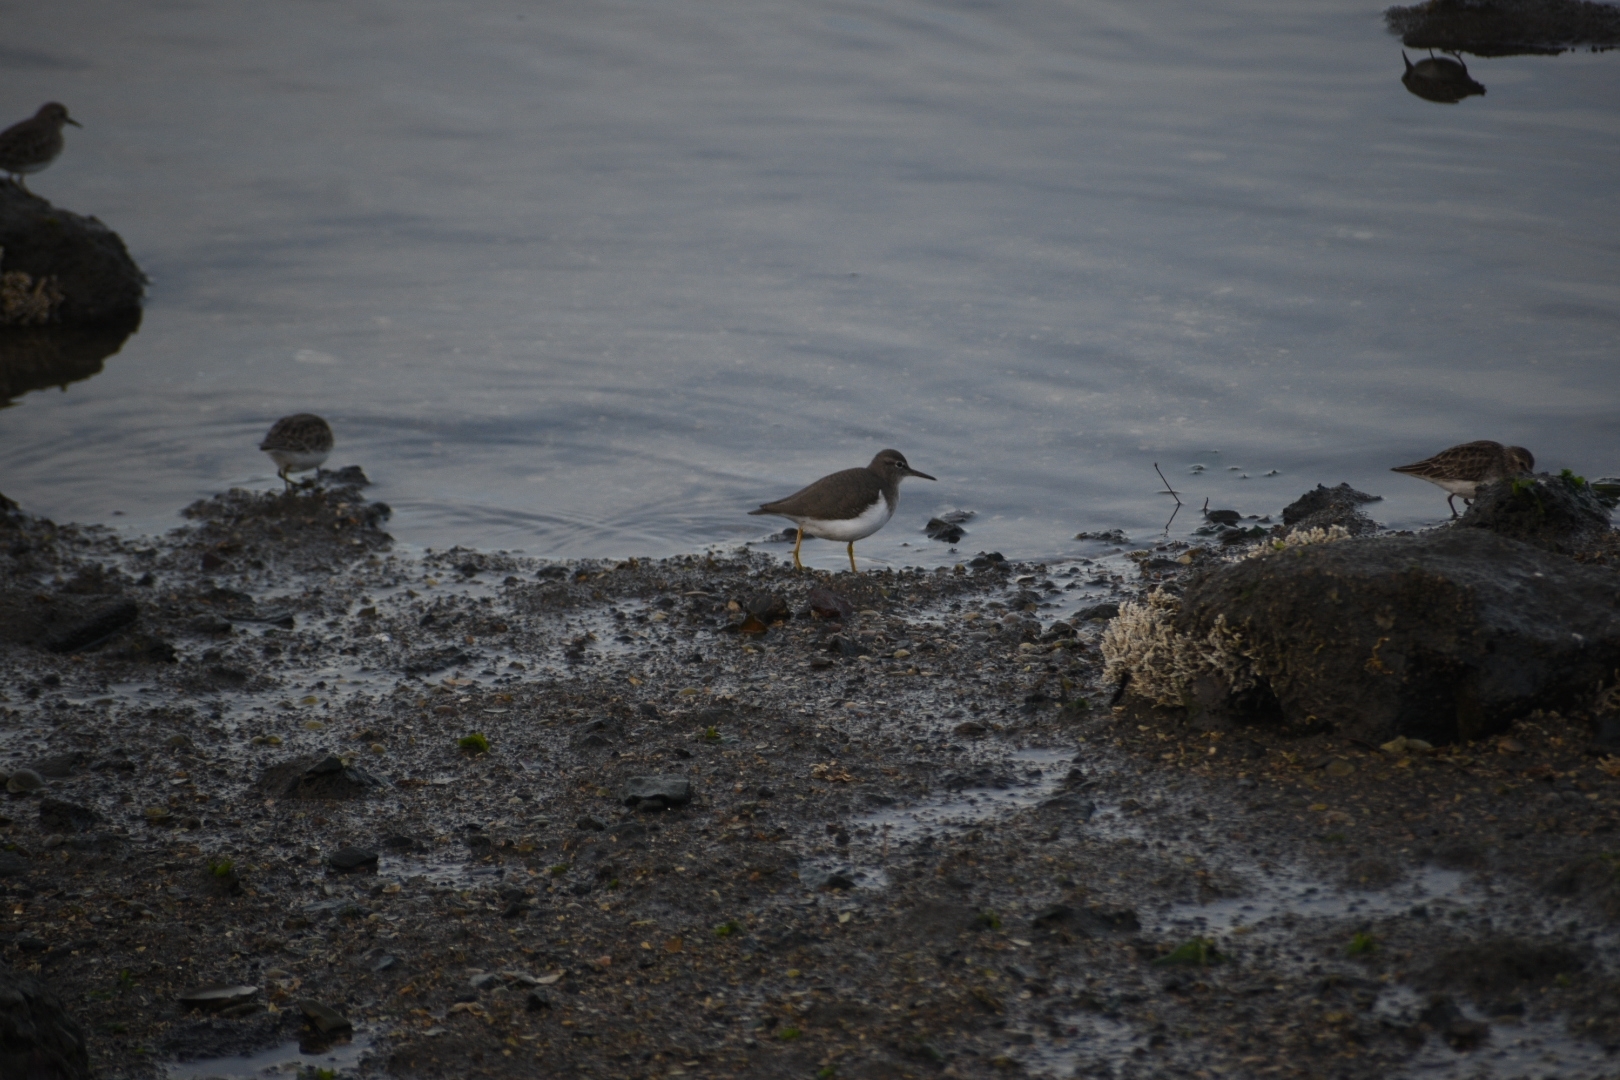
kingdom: Animalia
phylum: Chordata
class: Aves
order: Charadriiformes
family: Scolopacidae
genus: Actitis
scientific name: Actitis macularius
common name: Spotted sandpiper
